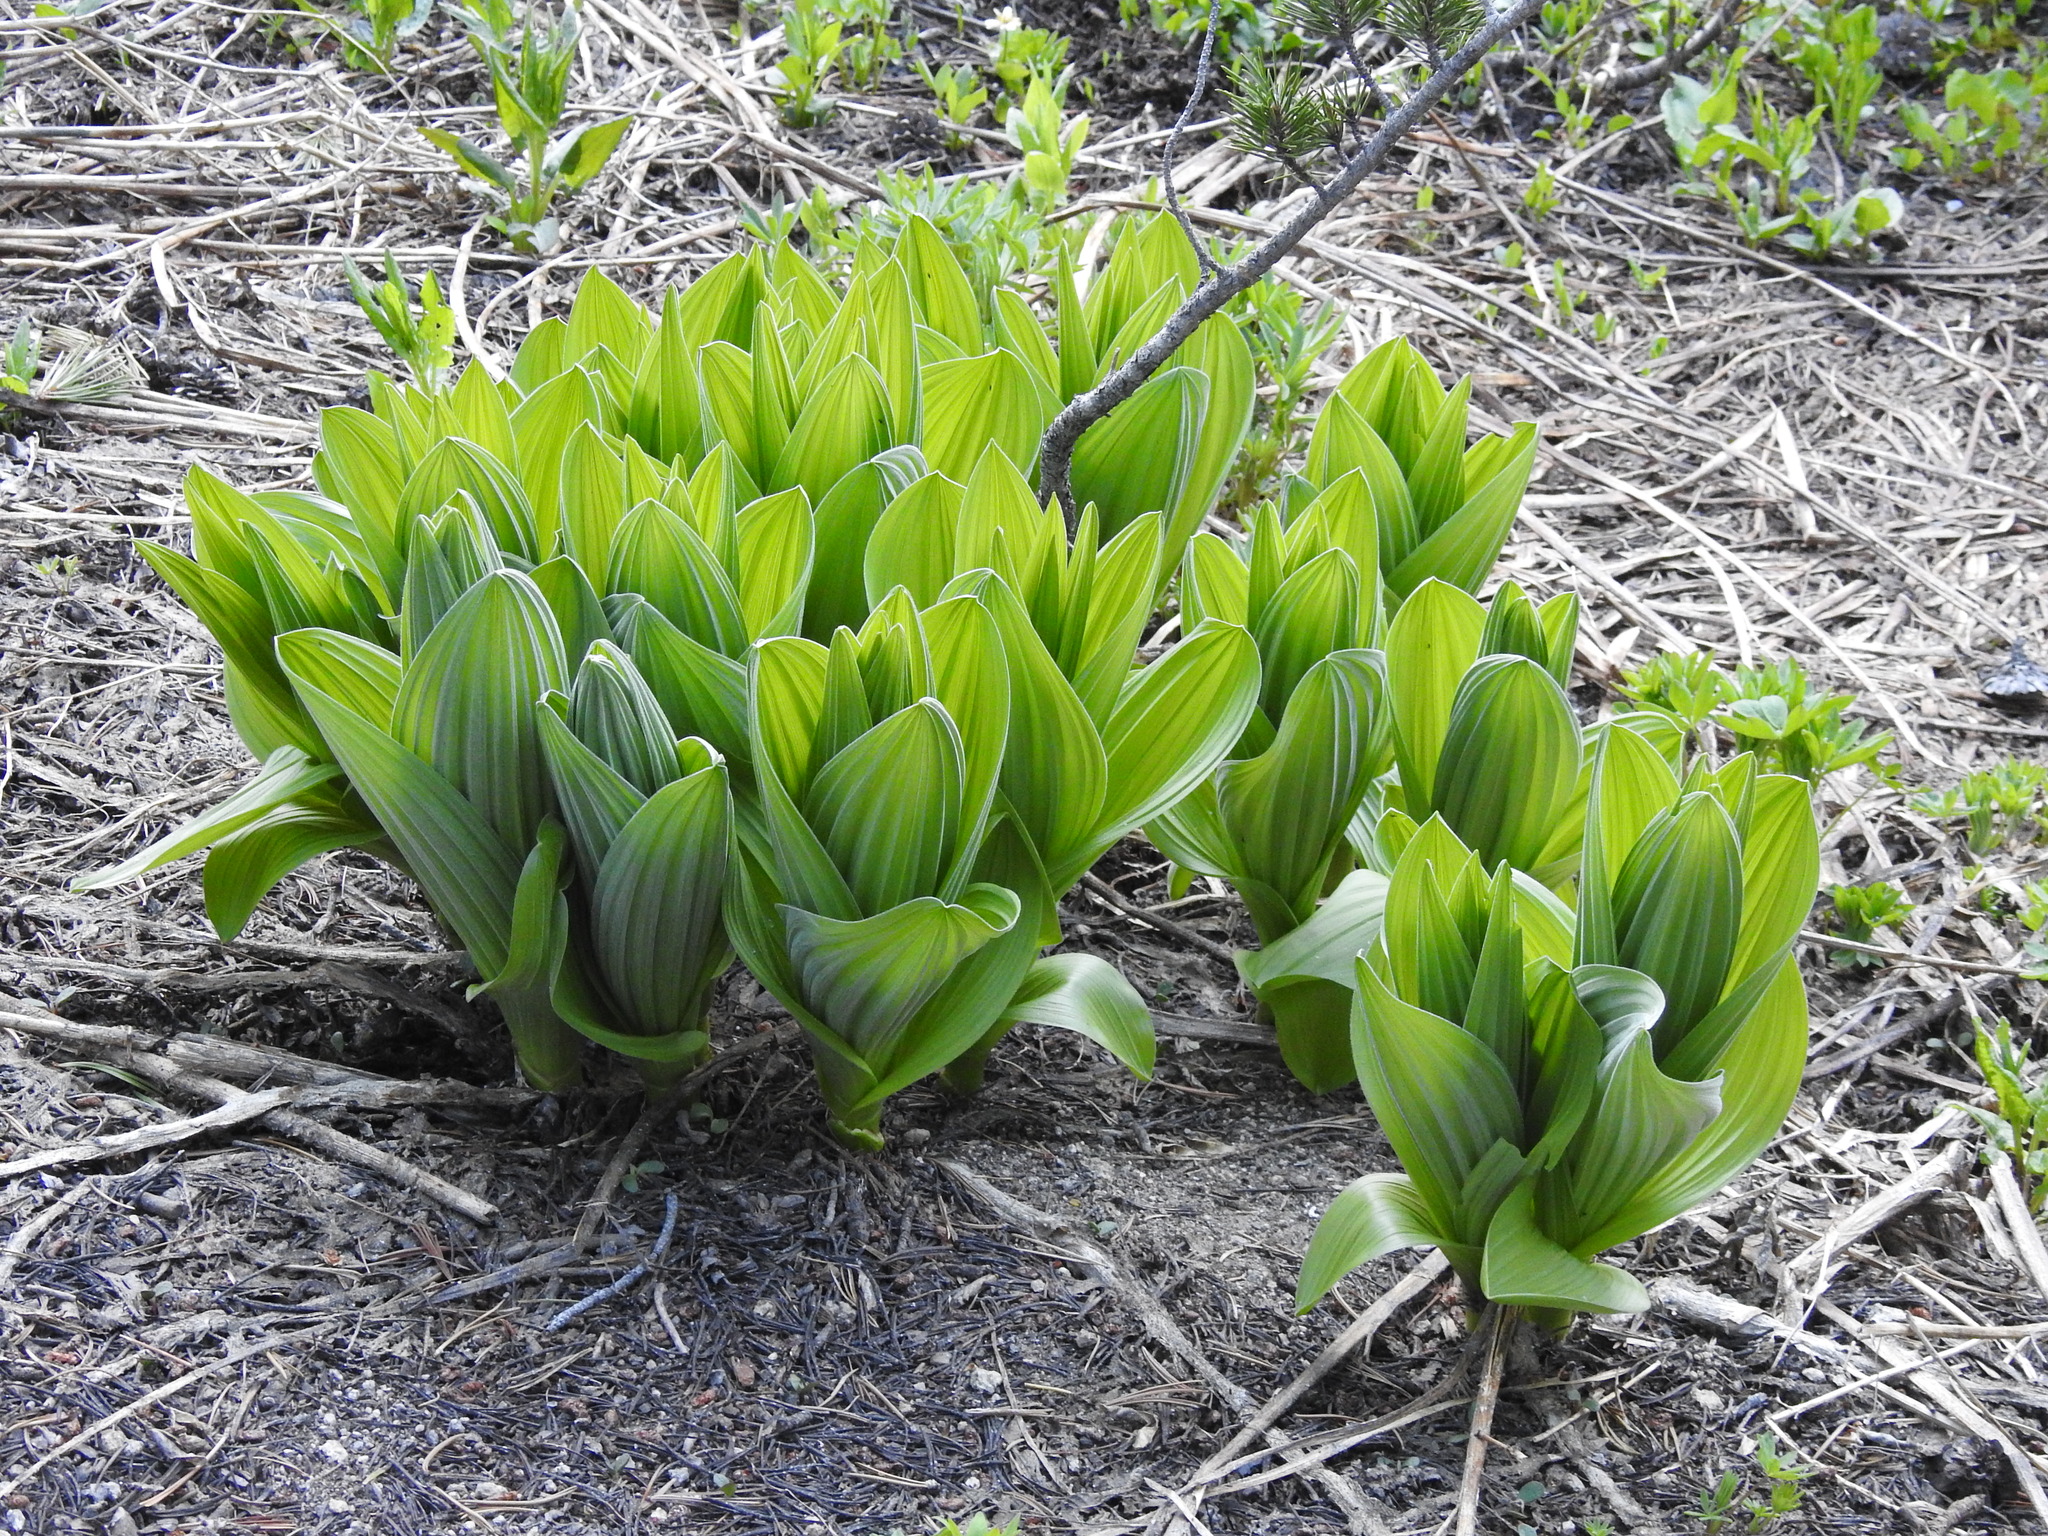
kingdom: Plantae
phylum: Tracheophyta
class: Liliopsida
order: Liliales
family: Melanthiaceae
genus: Veratrum
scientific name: Veratrum californicum
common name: California veratrum
